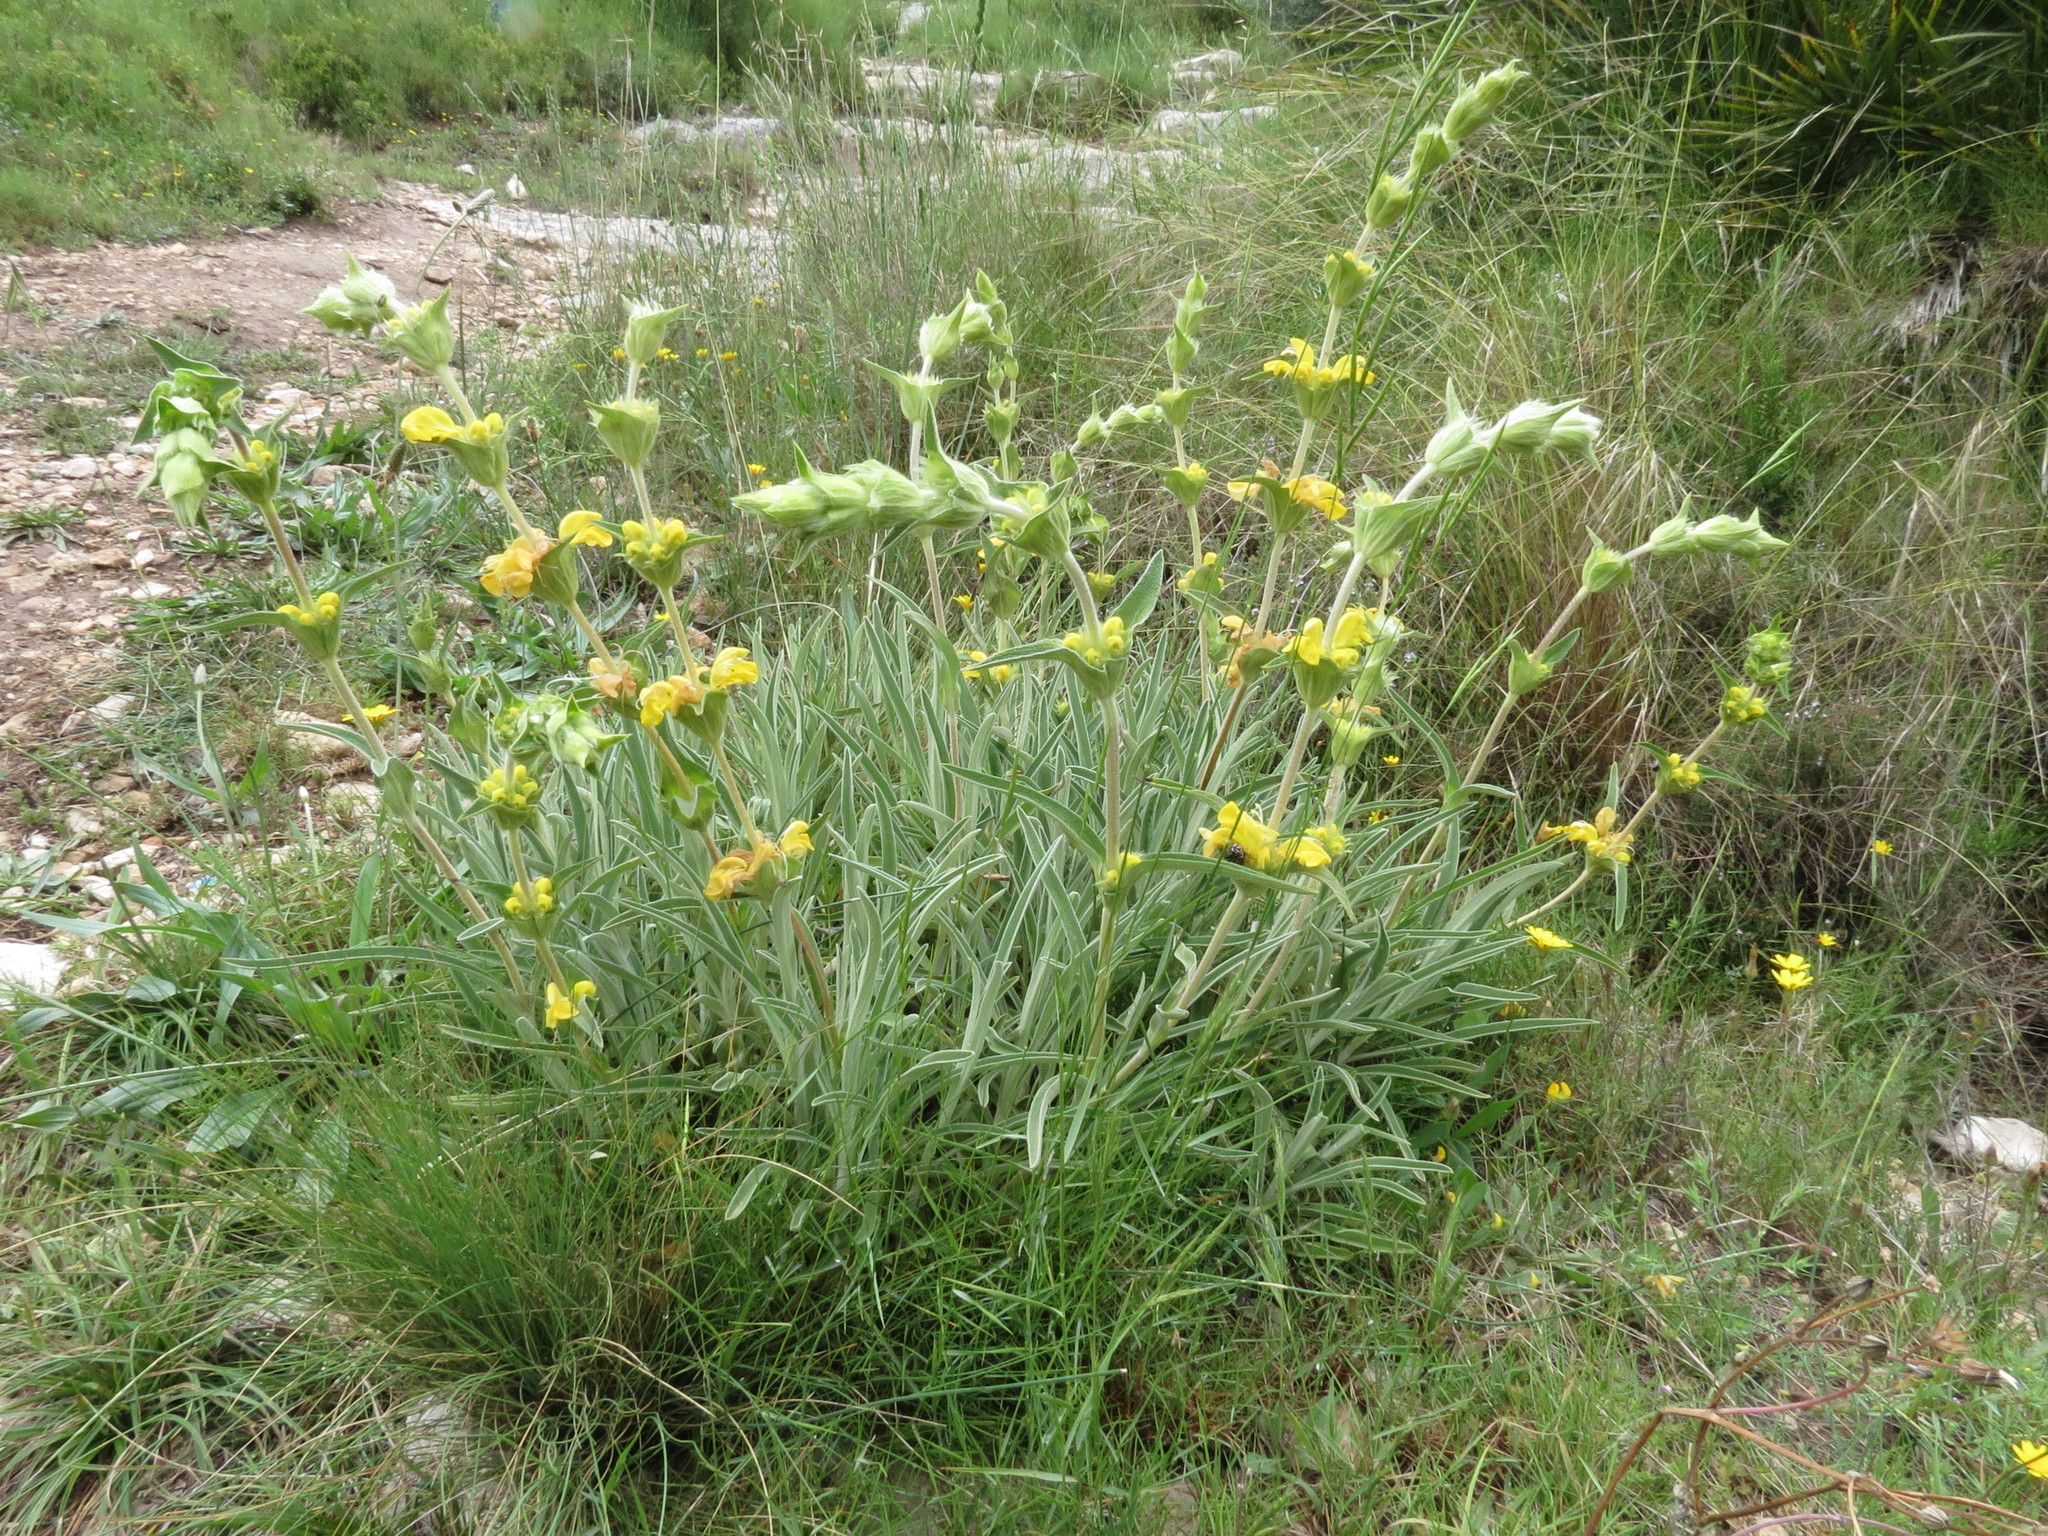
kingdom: Plantae
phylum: Tracheophyta
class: Magnoliopsida
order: Lamiales
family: Lamiaceae
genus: Phlomis
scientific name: Phlomis lychnitis
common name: Lampwickplant
